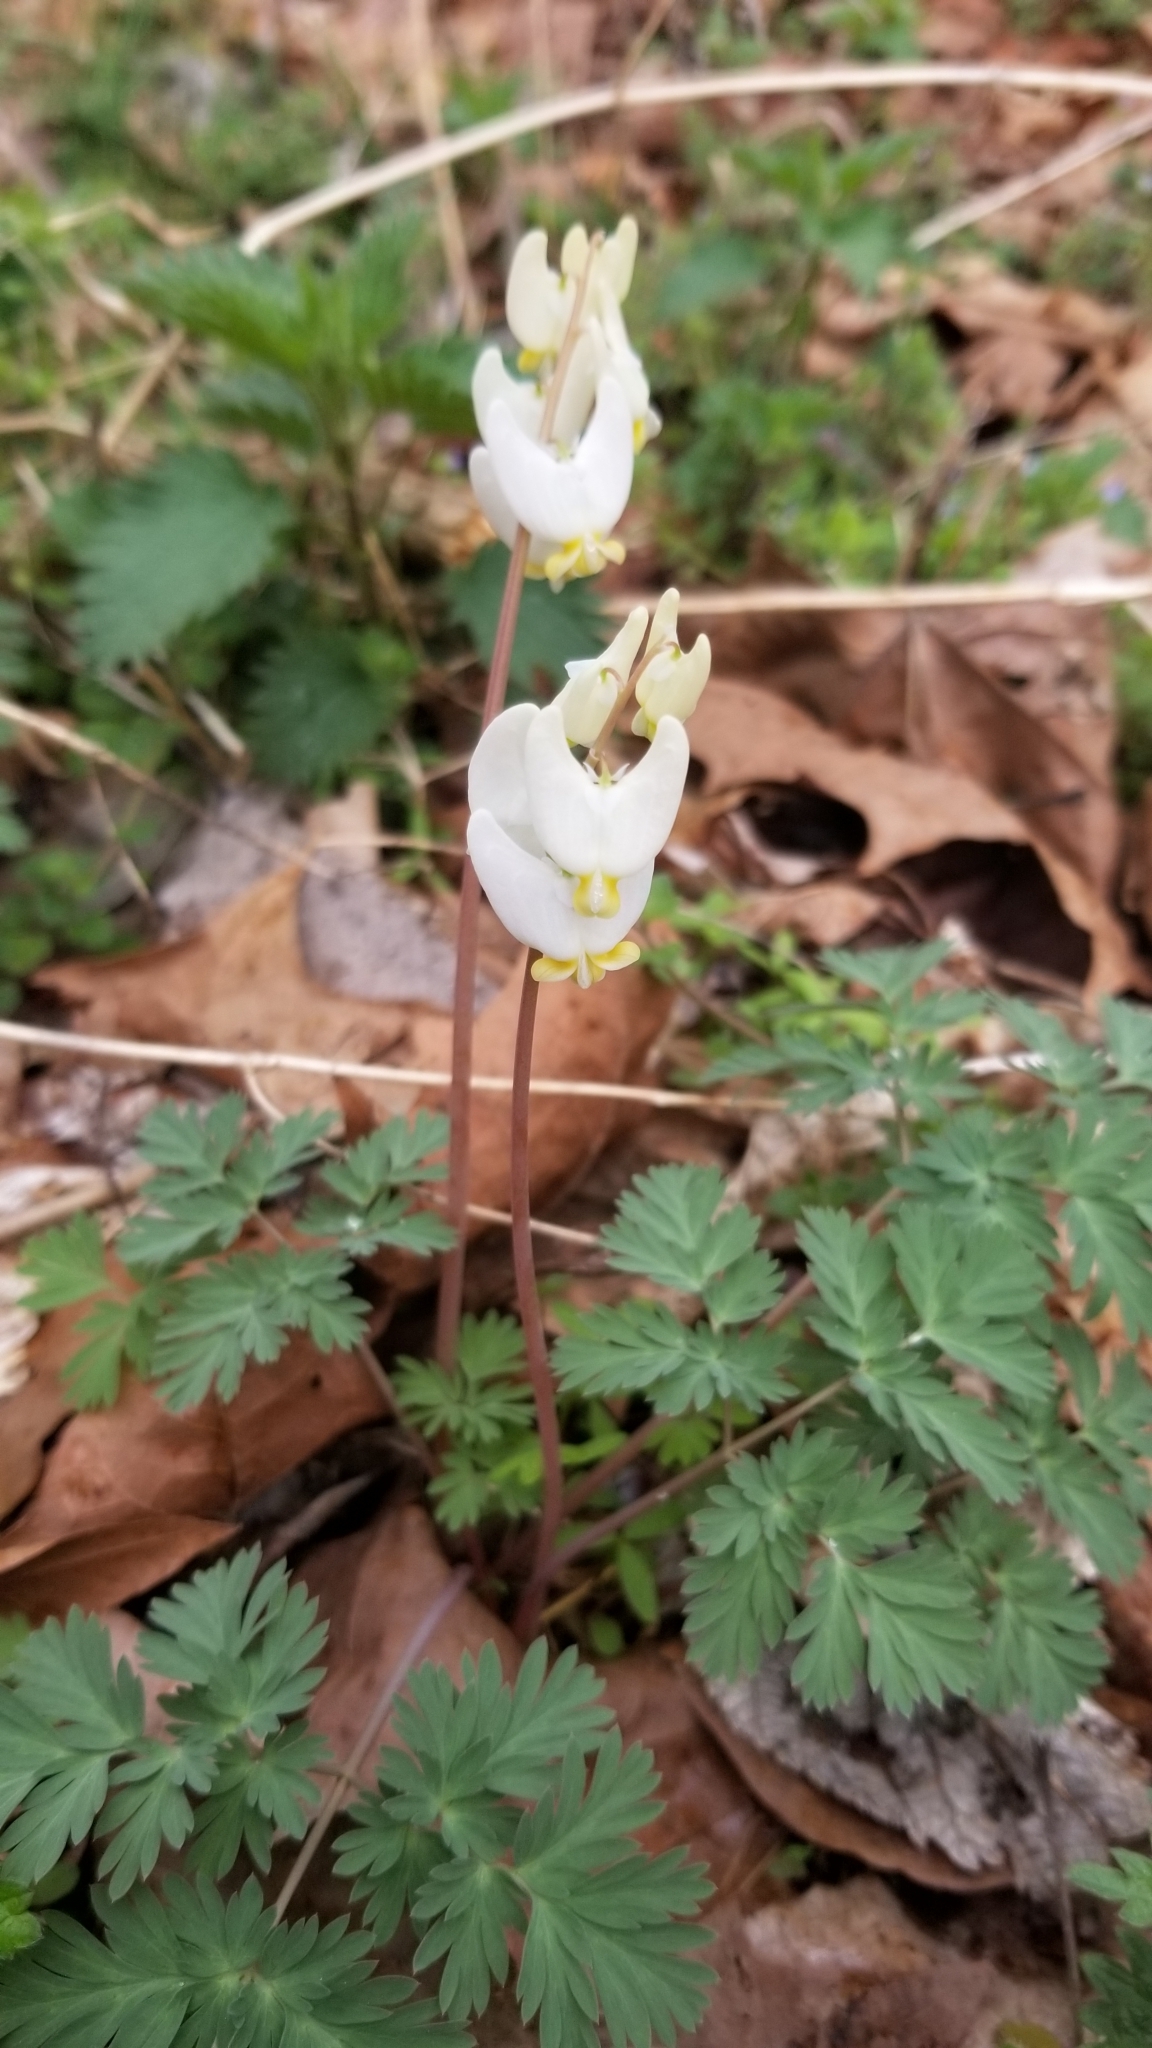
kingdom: Plantae
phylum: Tracheophyta
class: Magnoliopsida
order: Ranunculales
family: Papaveraceae
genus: Dicentra
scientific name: Dicentra cucullaria
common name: Dutchman's breeches
